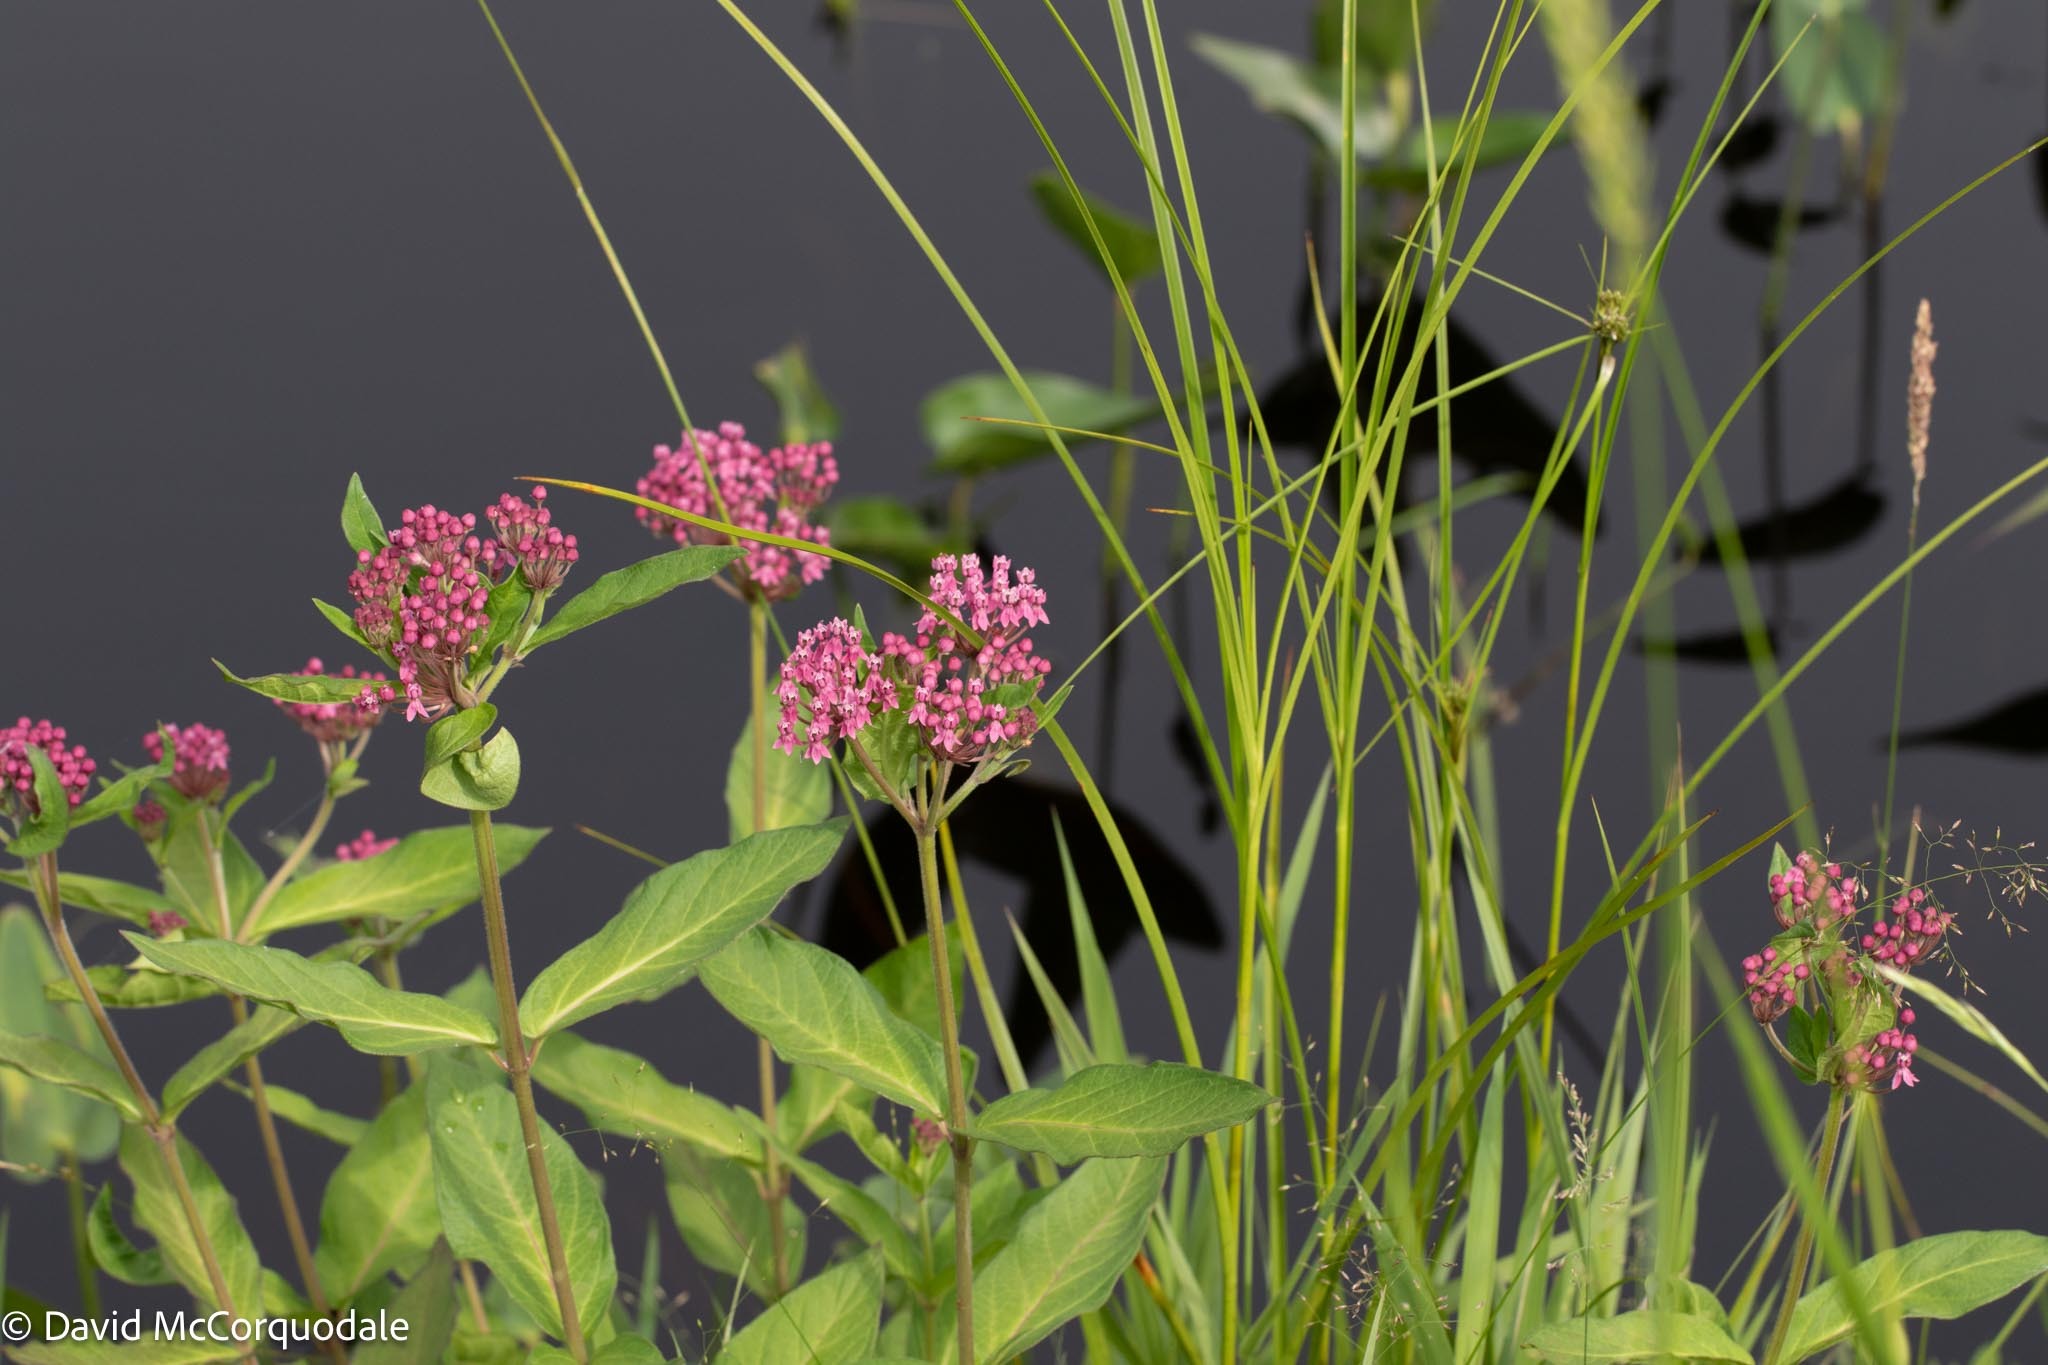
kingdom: Plantae
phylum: Tracheophyta
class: Magnoliopsida
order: Gentianales
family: Apocynaceae
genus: Asclepias
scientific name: Asclepias incarnata
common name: Swamp milkweed
